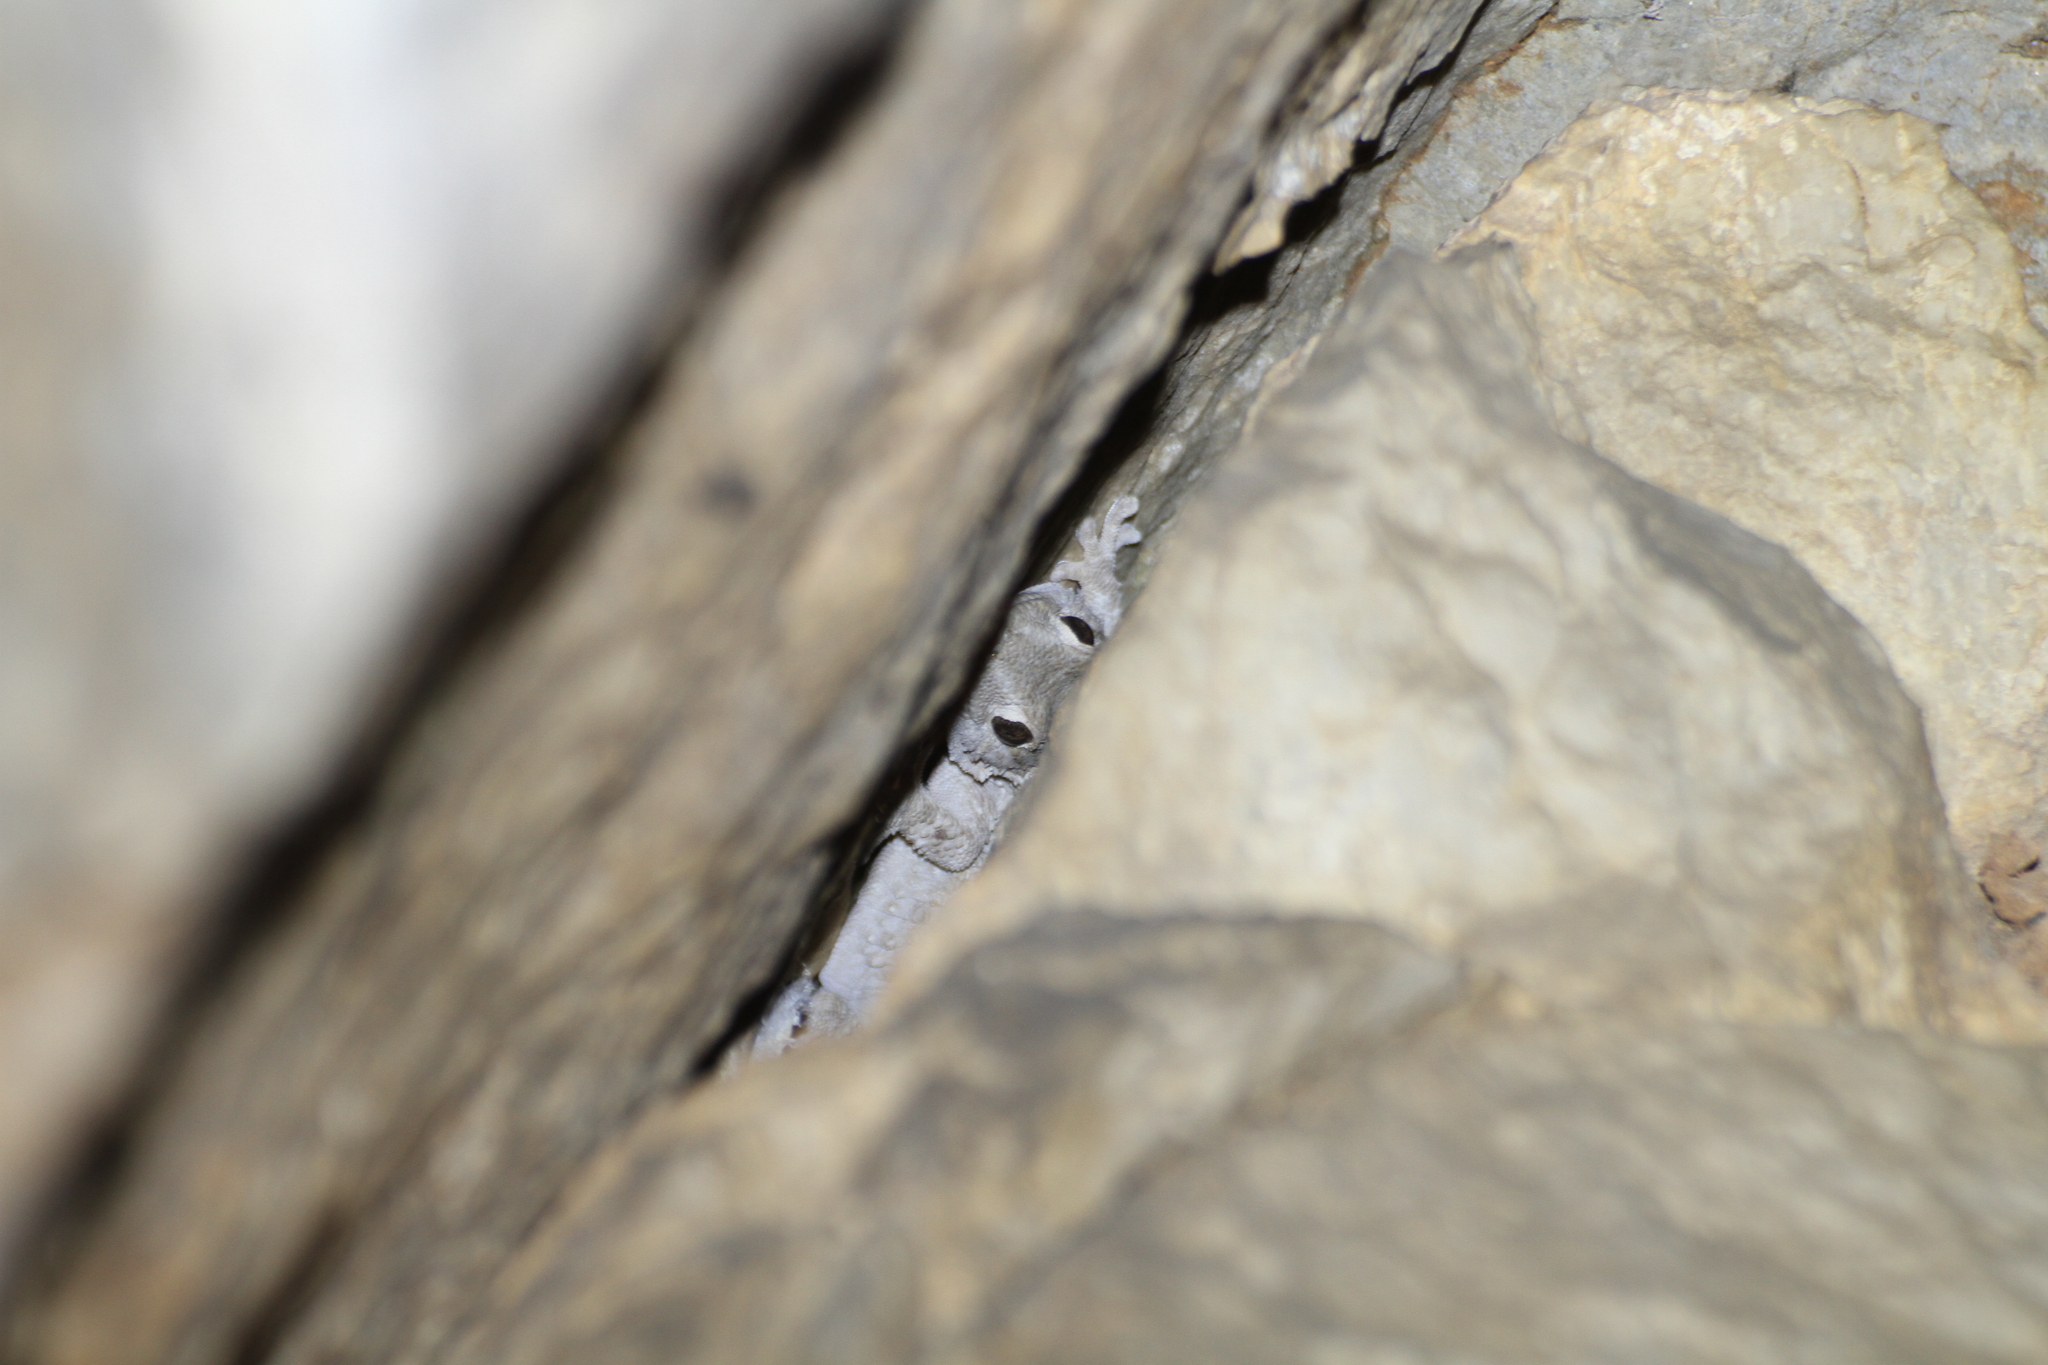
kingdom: Animalia
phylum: Chordata
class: Squamata
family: Phyllodactylidae
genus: Tarentola
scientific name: Tarentola mauritanica
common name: Moorish gecko
